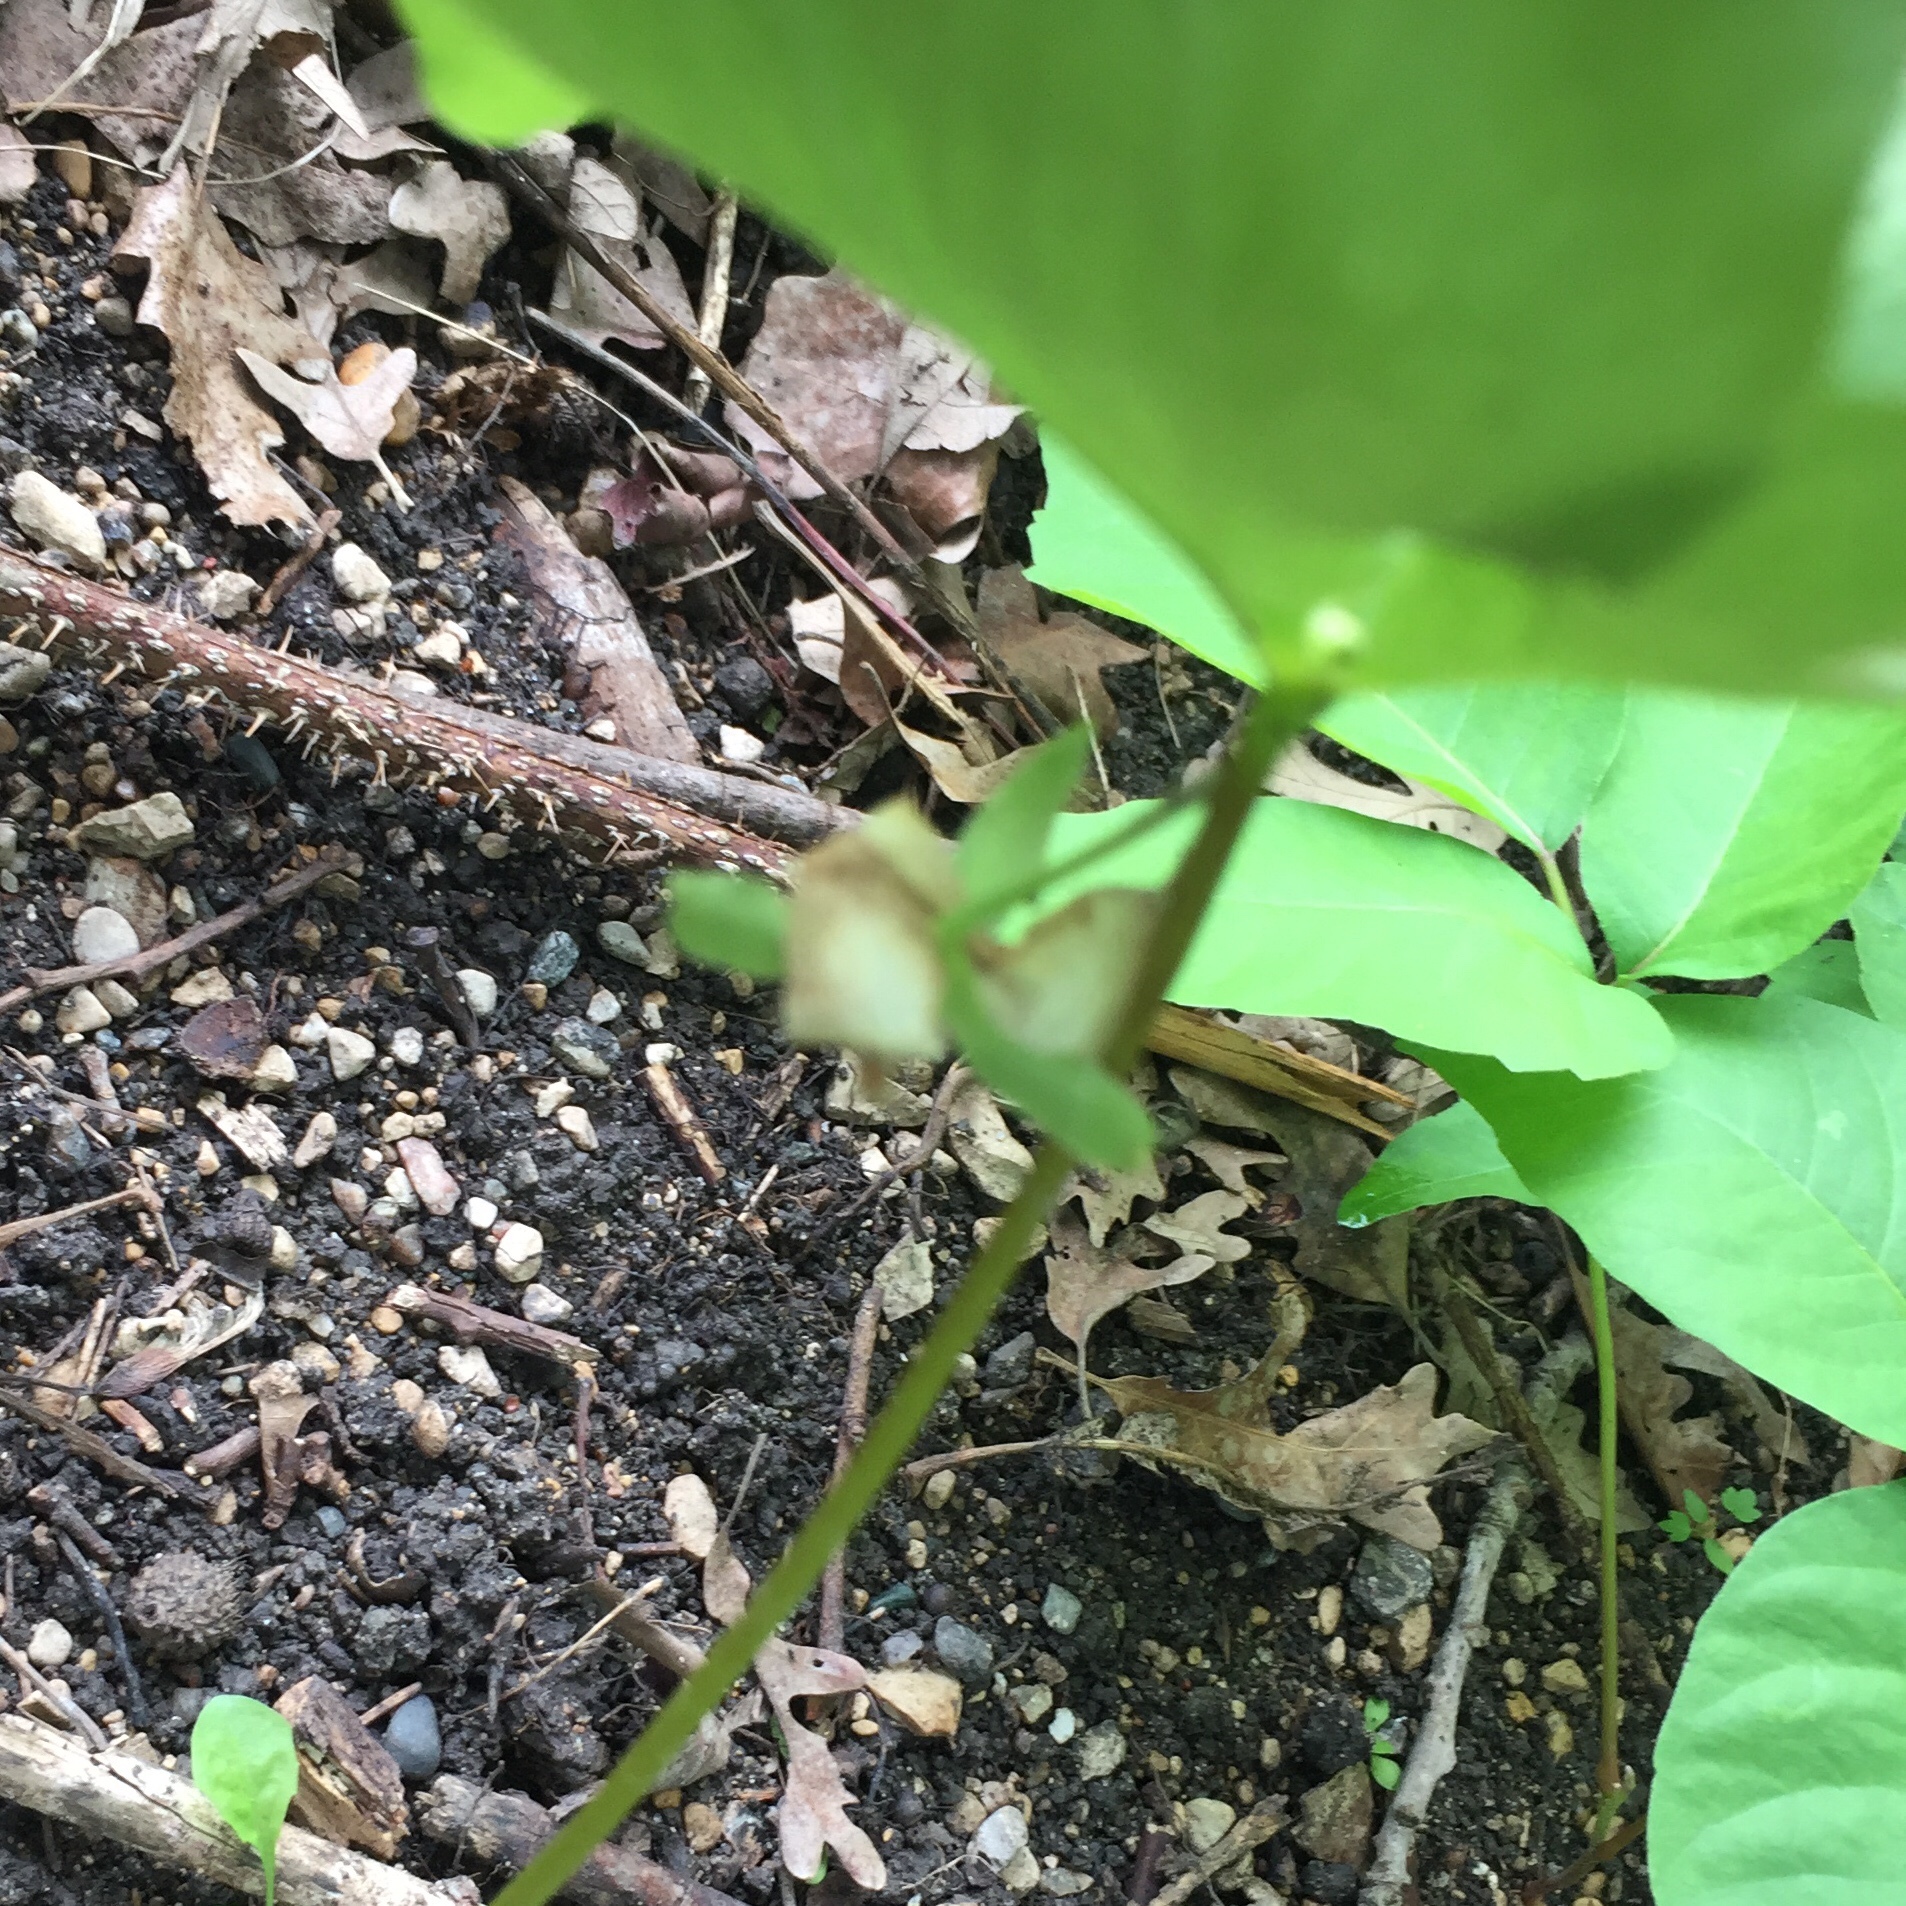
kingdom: Plantae
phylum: Tracheophyta
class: Liliopsida
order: Liliales
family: Melanthiaceae
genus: Trillium
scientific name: Trillium cernuum
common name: Nodding trillium
